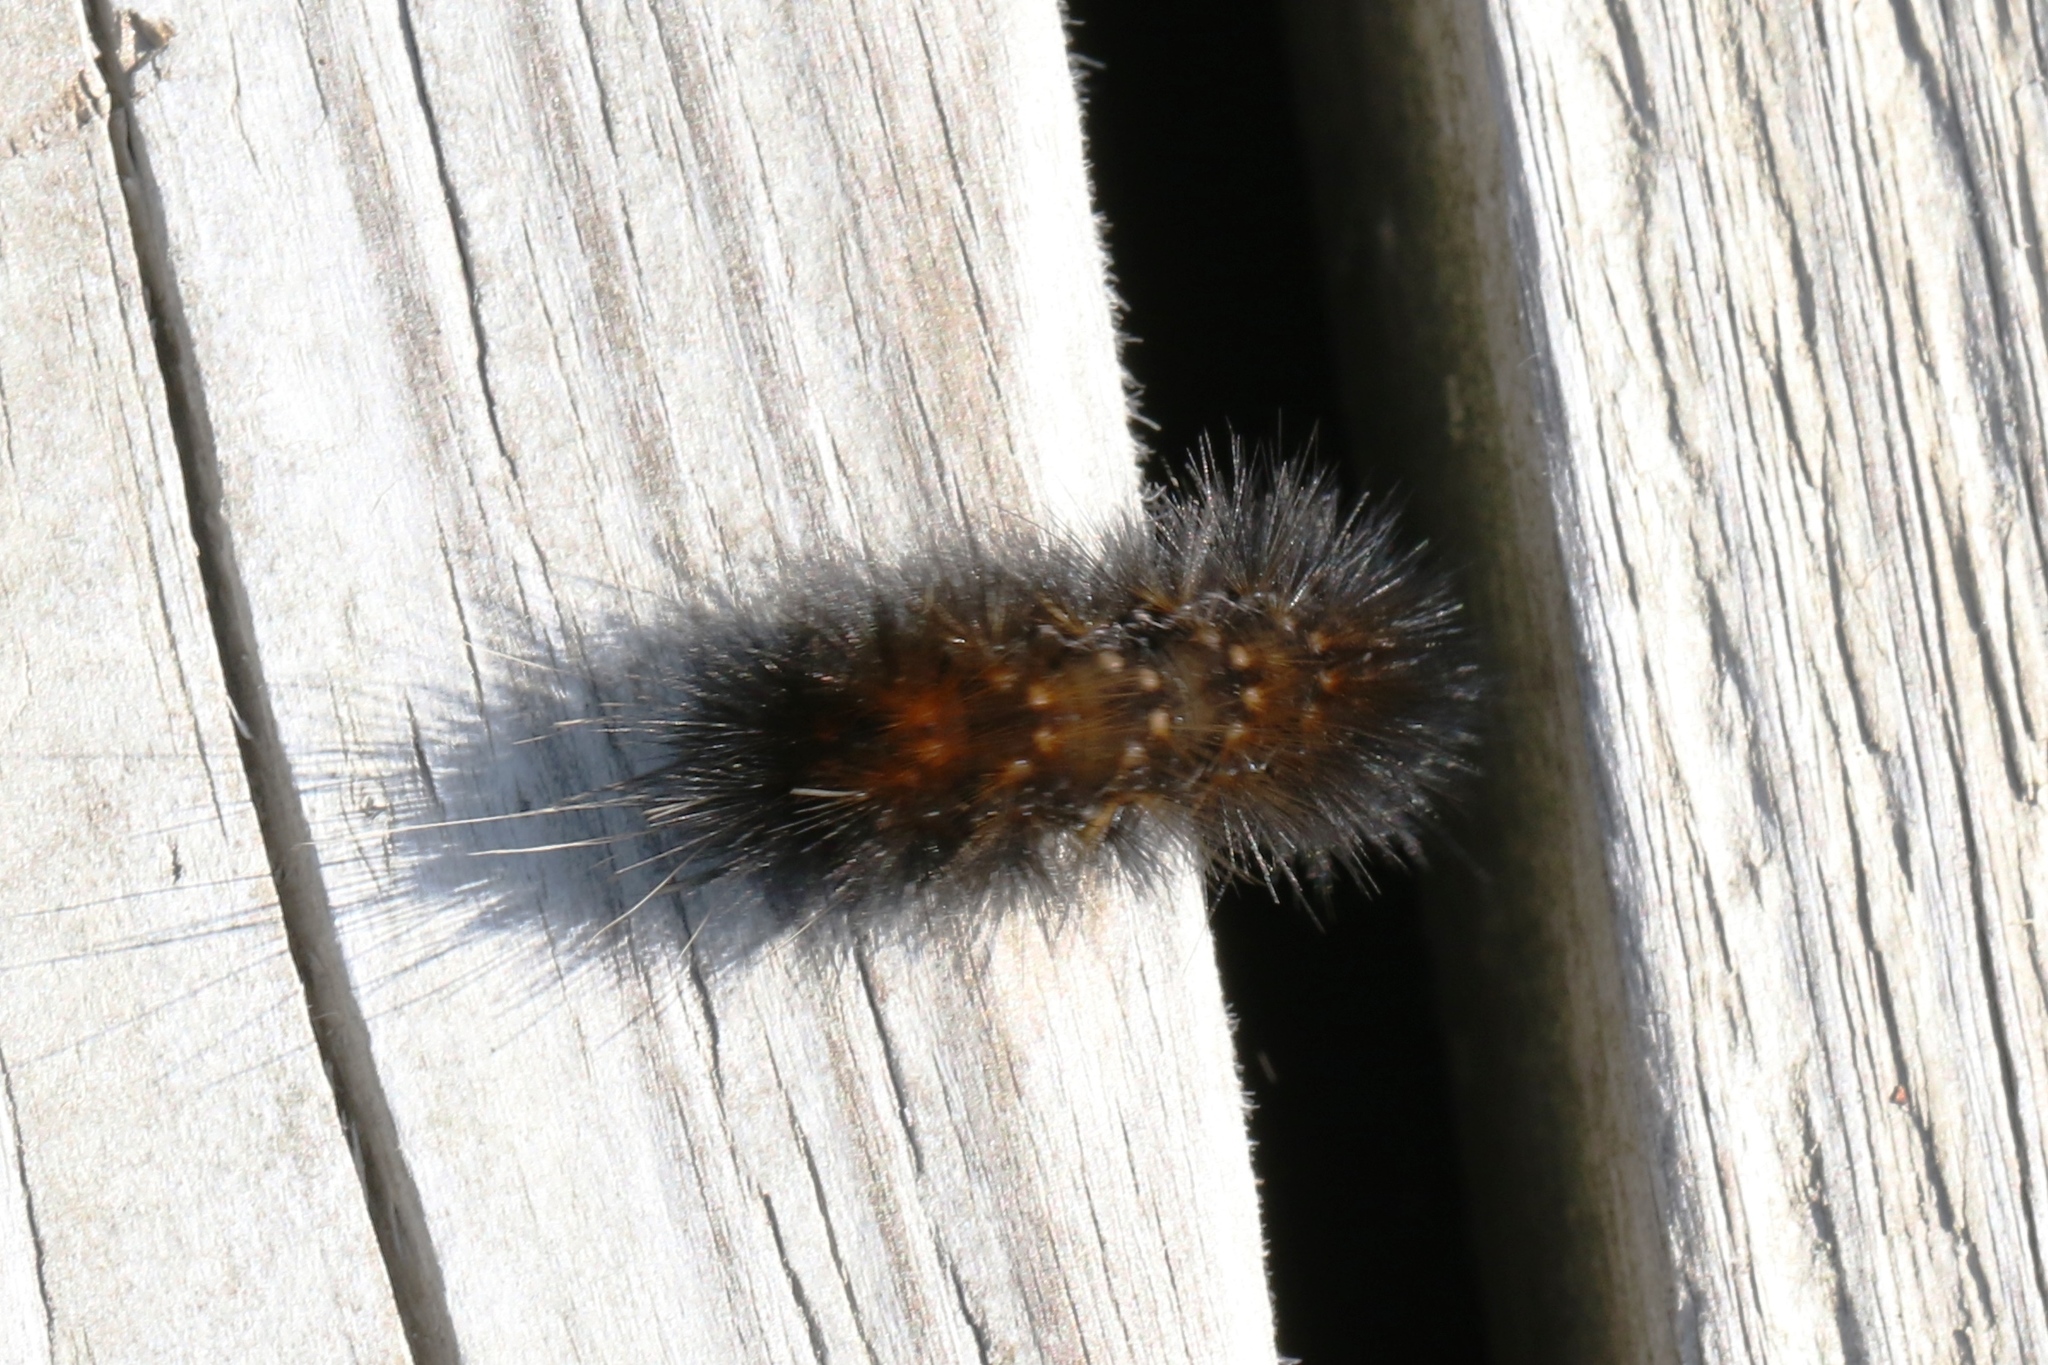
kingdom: Animalia
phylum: Arthropoda
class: Insecta
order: Lepidoptera
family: Erebidae
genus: Spilosoma
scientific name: Spilosoma virginica
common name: Virginia tiger moth
